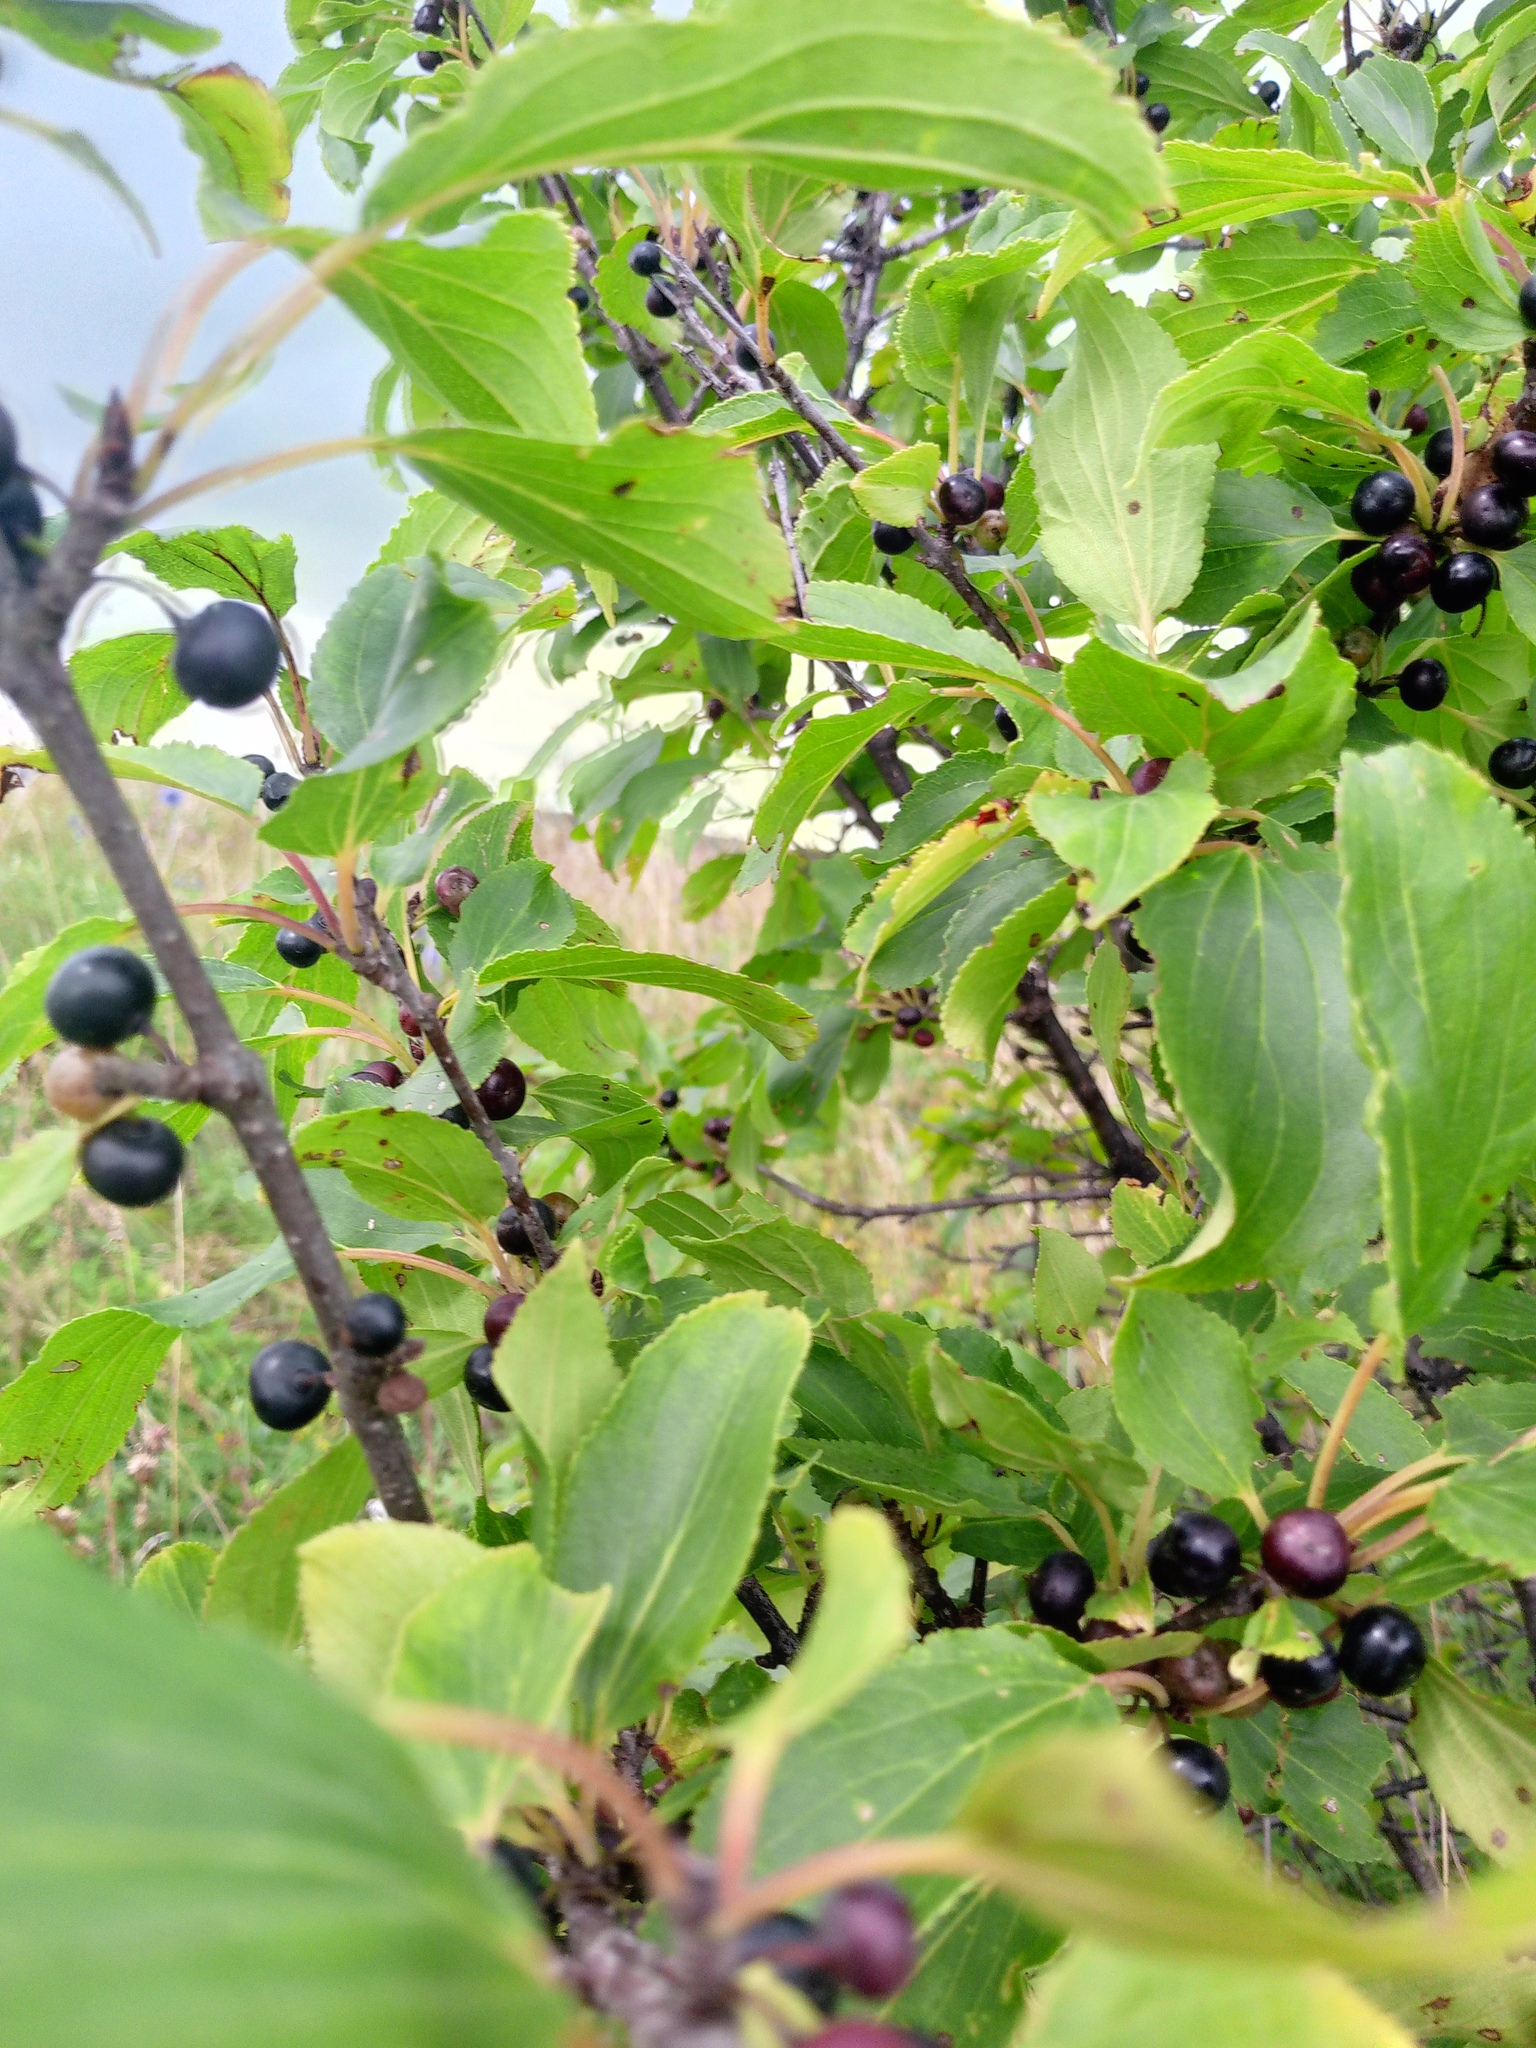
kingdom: Plantae
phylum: Tracheophyta
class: Magnoliopsida
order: Rosales
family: Rhamnaceae
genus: Rhamnus
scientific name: Rhamnus cathartica
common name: Common buckthorn
